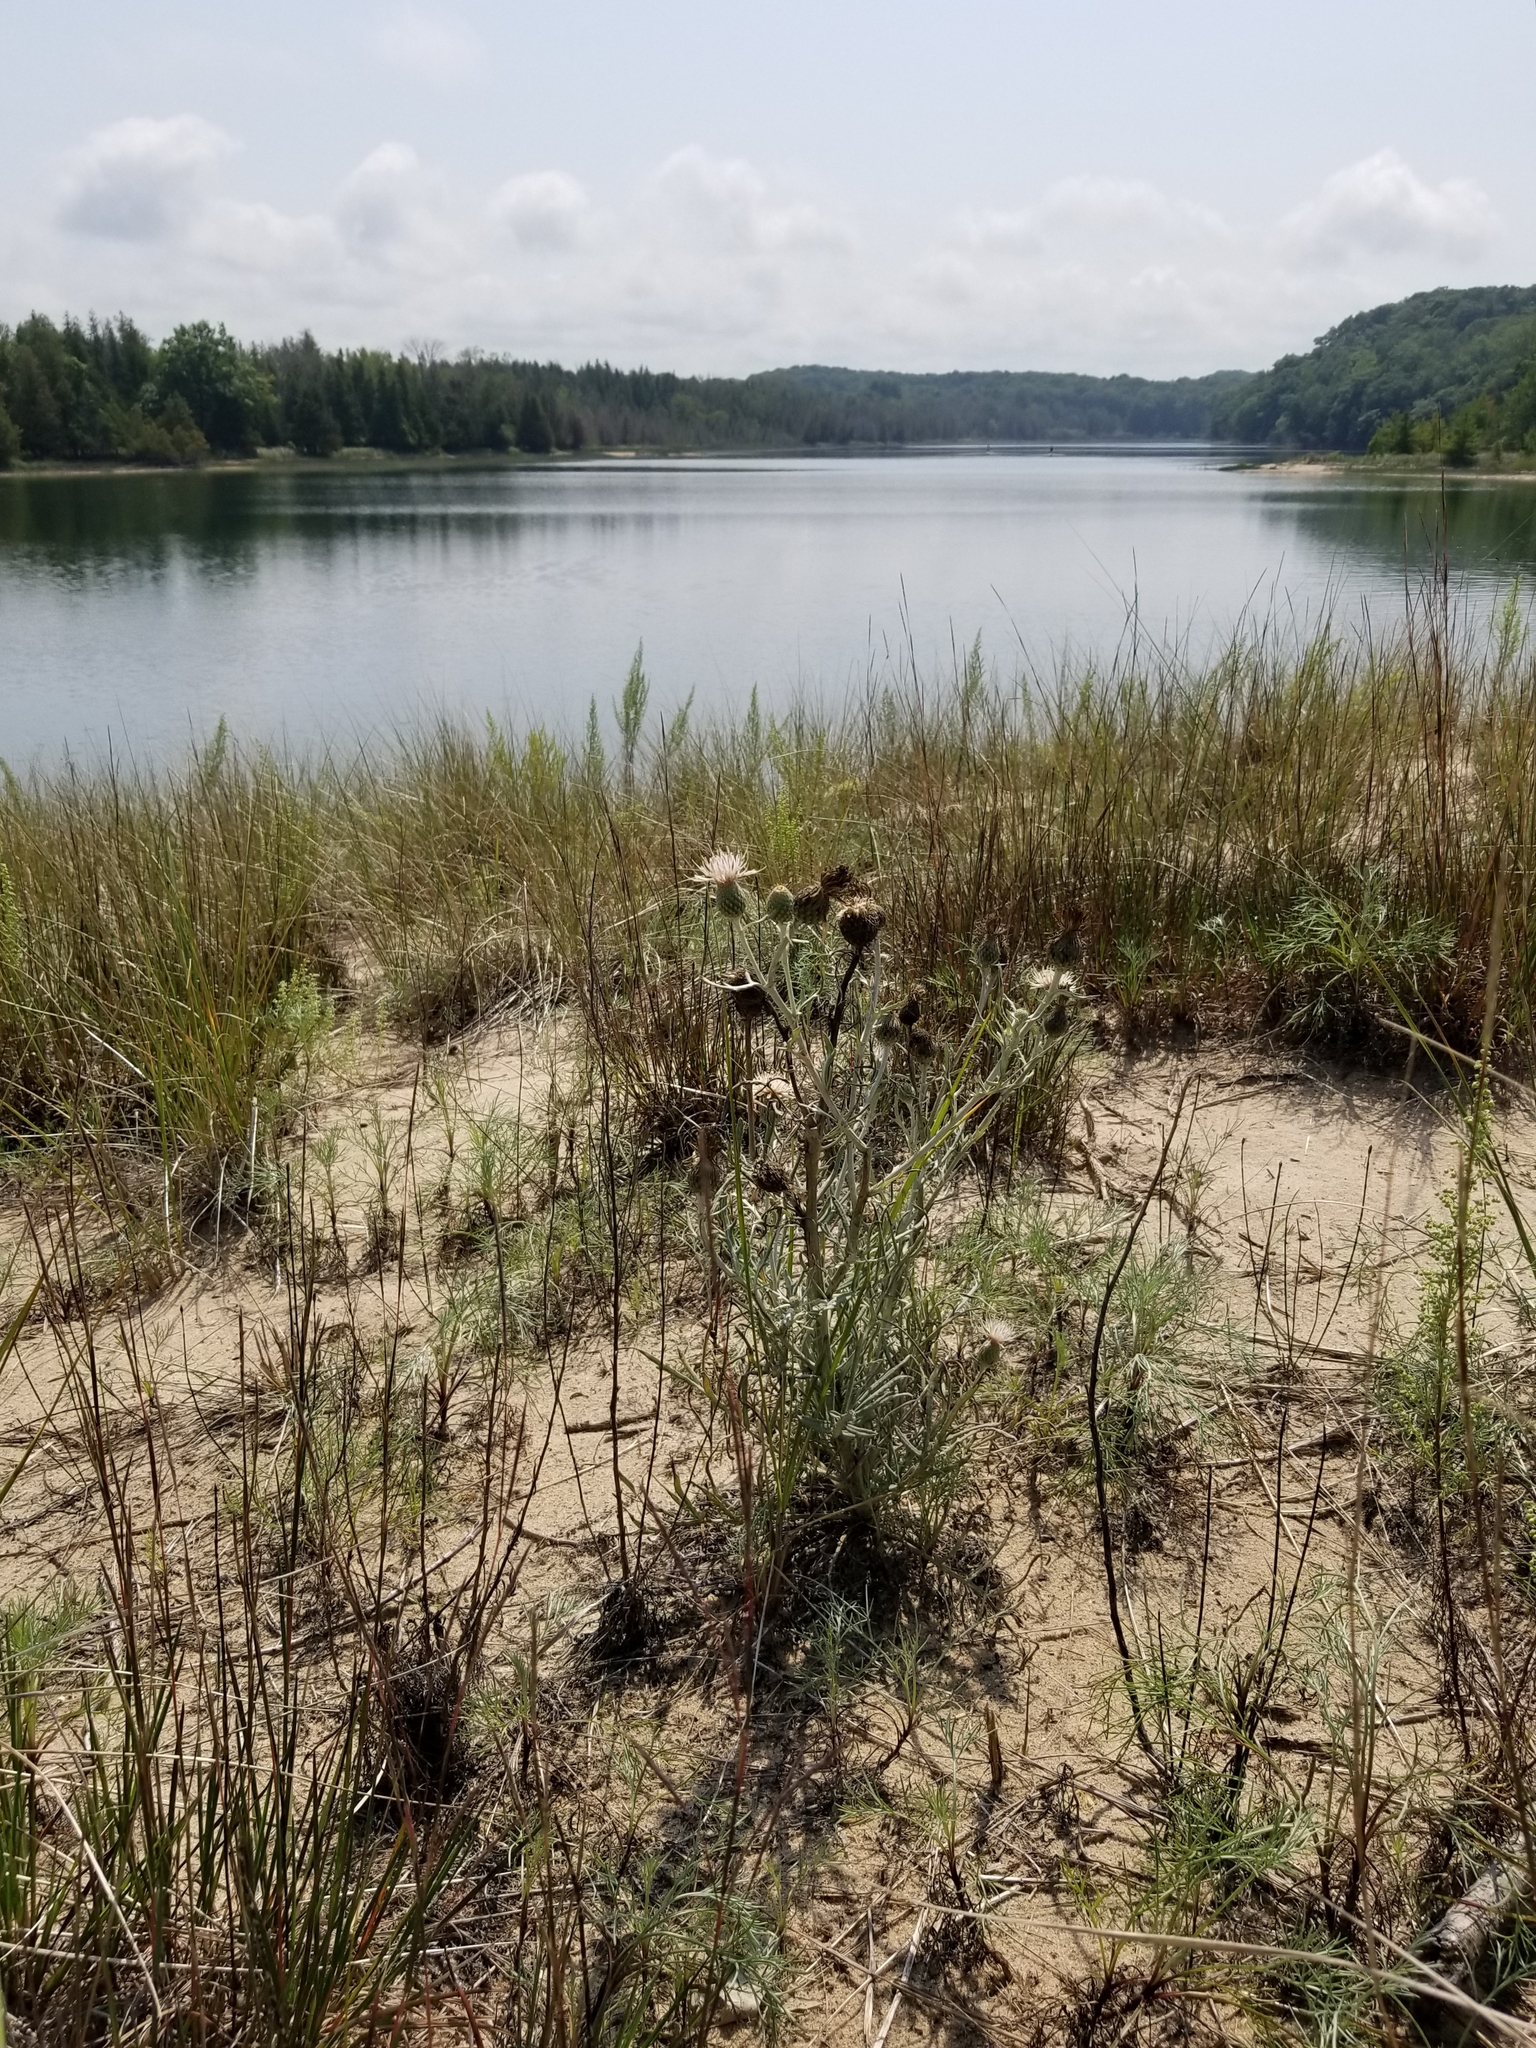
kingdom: Plantae
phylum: Tracheophyta
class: Magnoliopsida
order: Asterales
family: Asteraceae
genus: Cirsium
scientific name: Cirsium pitcheri
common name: Dune thistle
